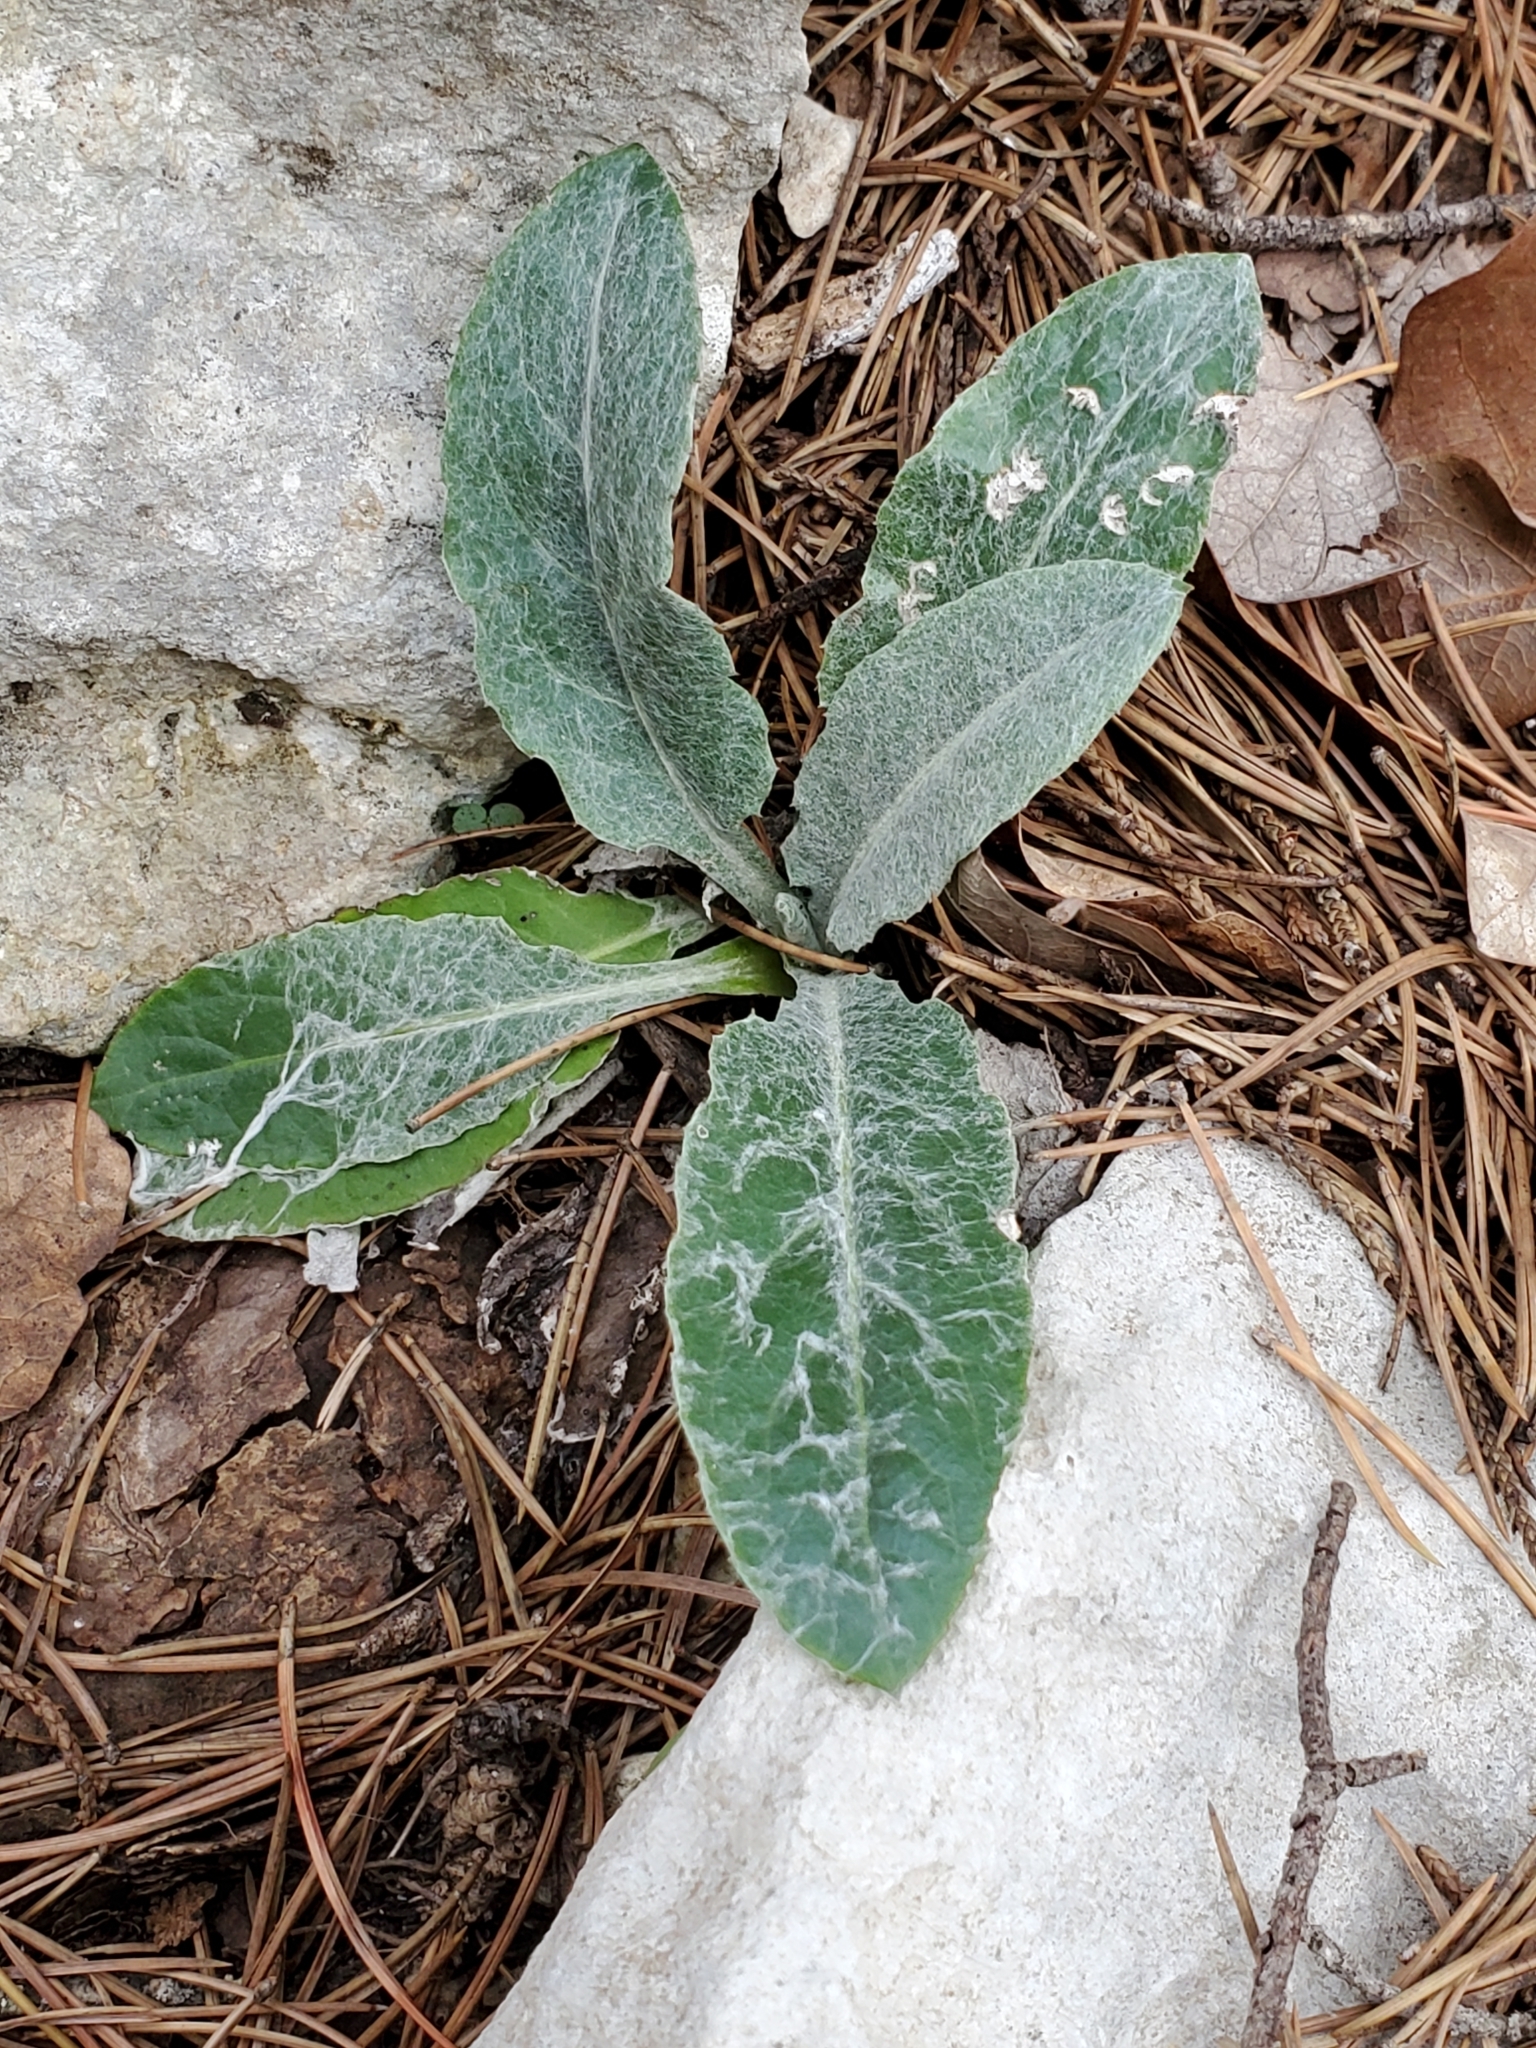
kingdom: Plantae
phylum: Tracheophyta
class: Magnoliopsida
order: Asterales
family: Asteraceae
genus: Chaptalia
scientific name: Chaptalia texana
